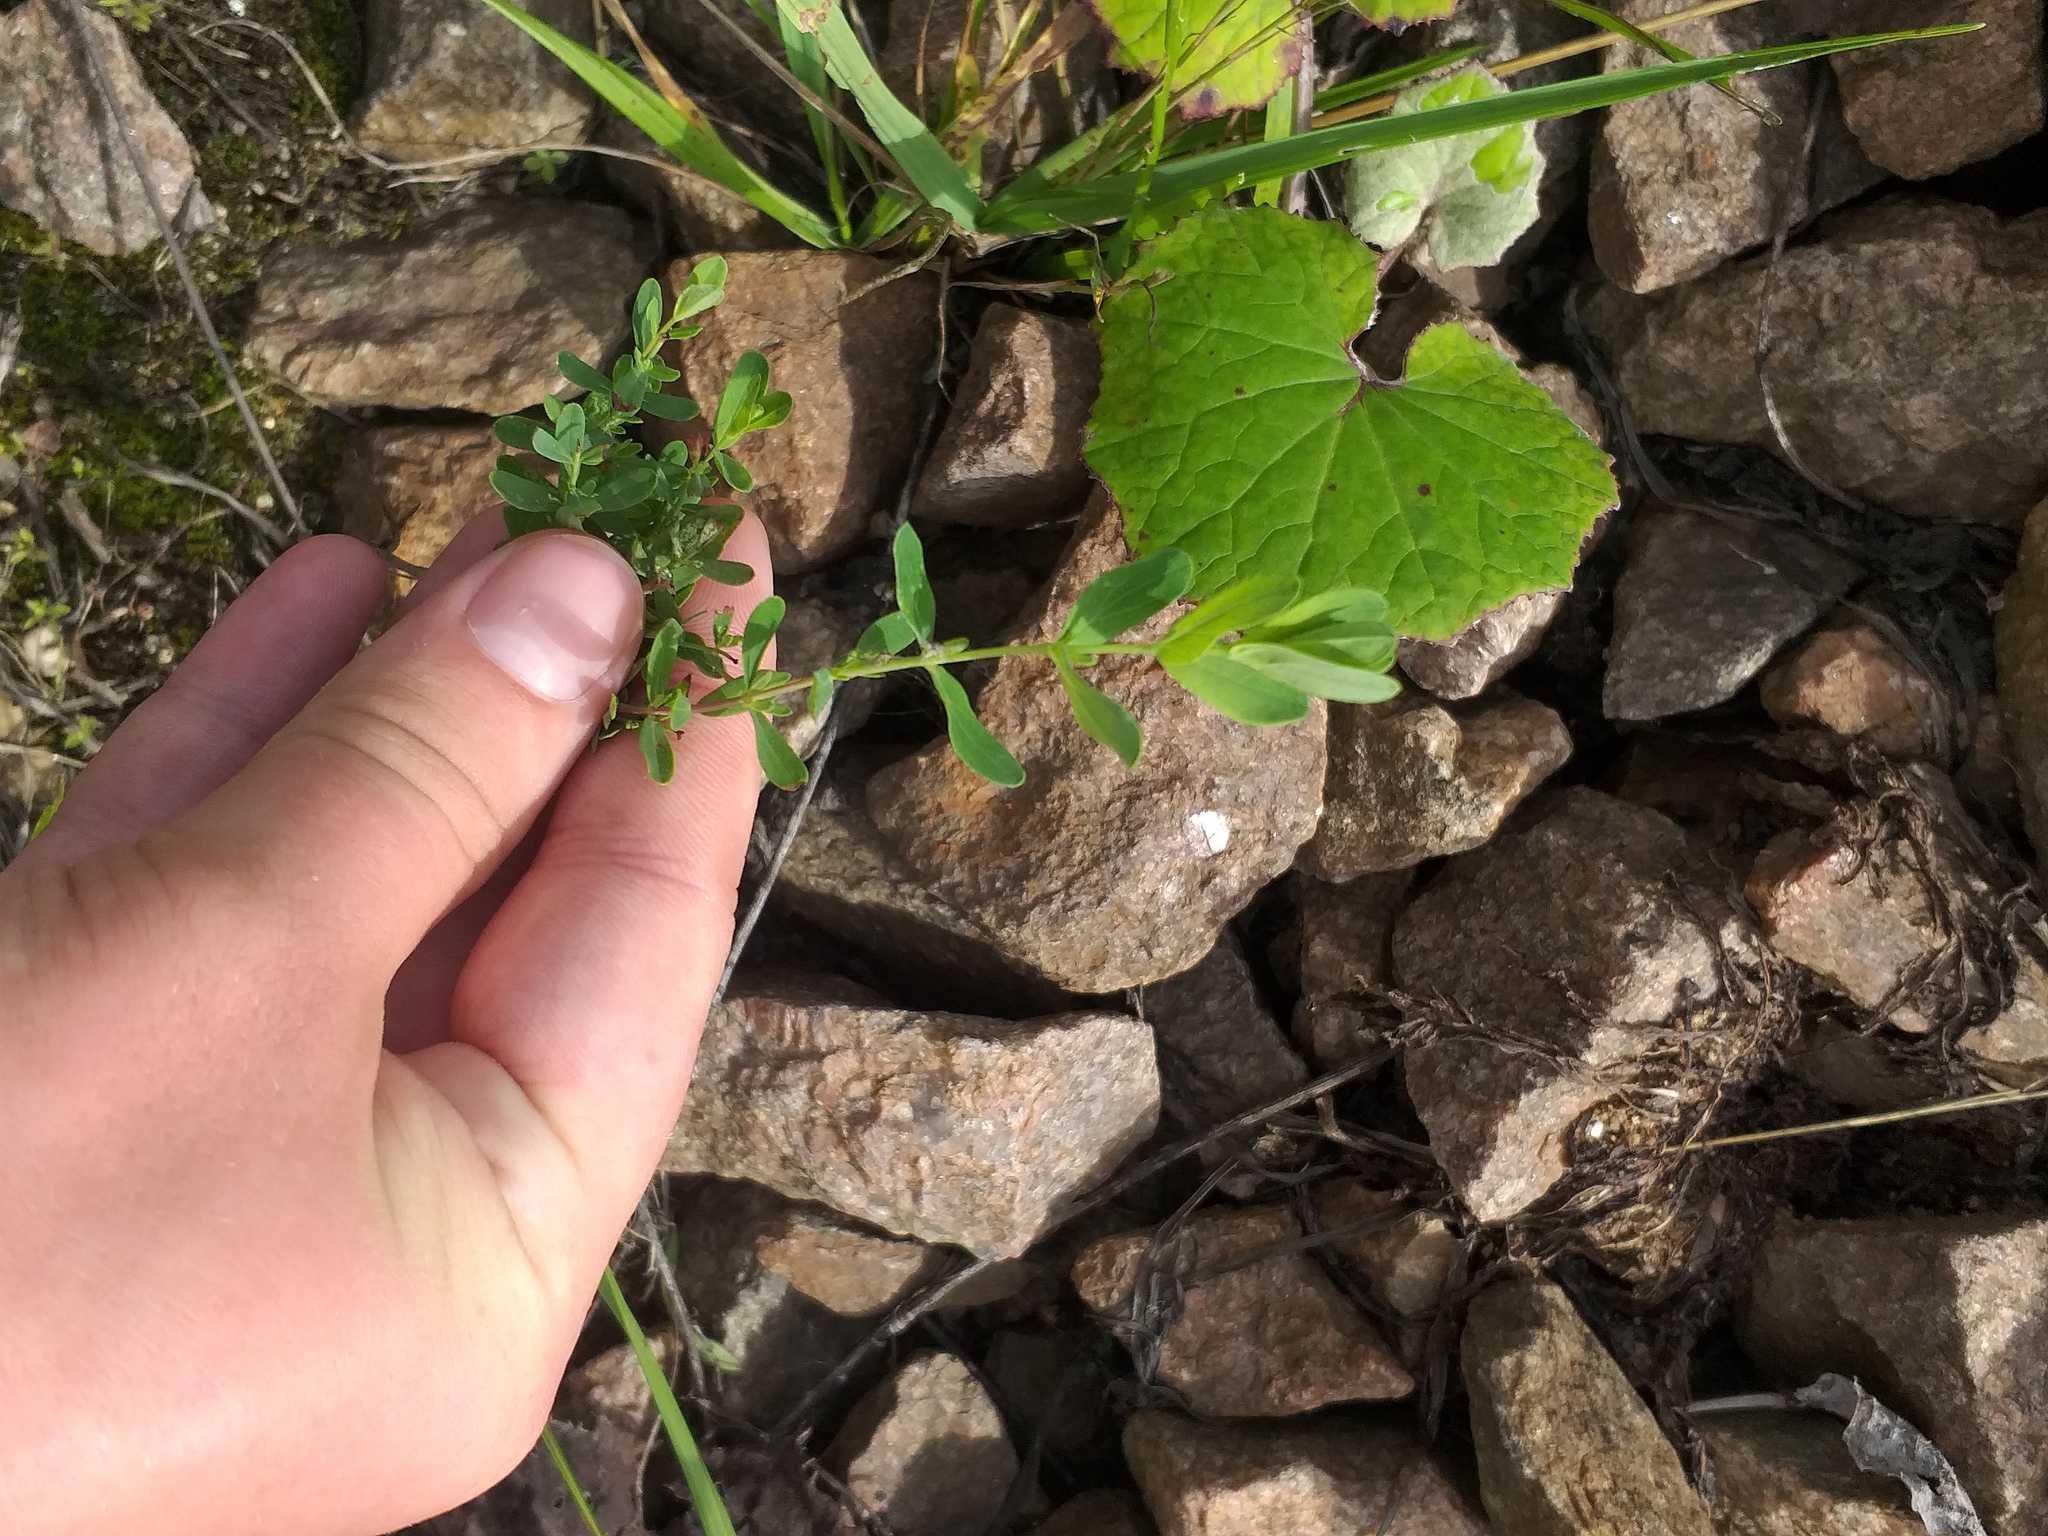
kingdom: Plantae
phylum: Tracheophyta
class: Magnoliopsida
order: Malpighiales
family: Hypericaceae
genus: Hypericum
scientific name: Hypericum perforatum
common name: Common st. johnswort
